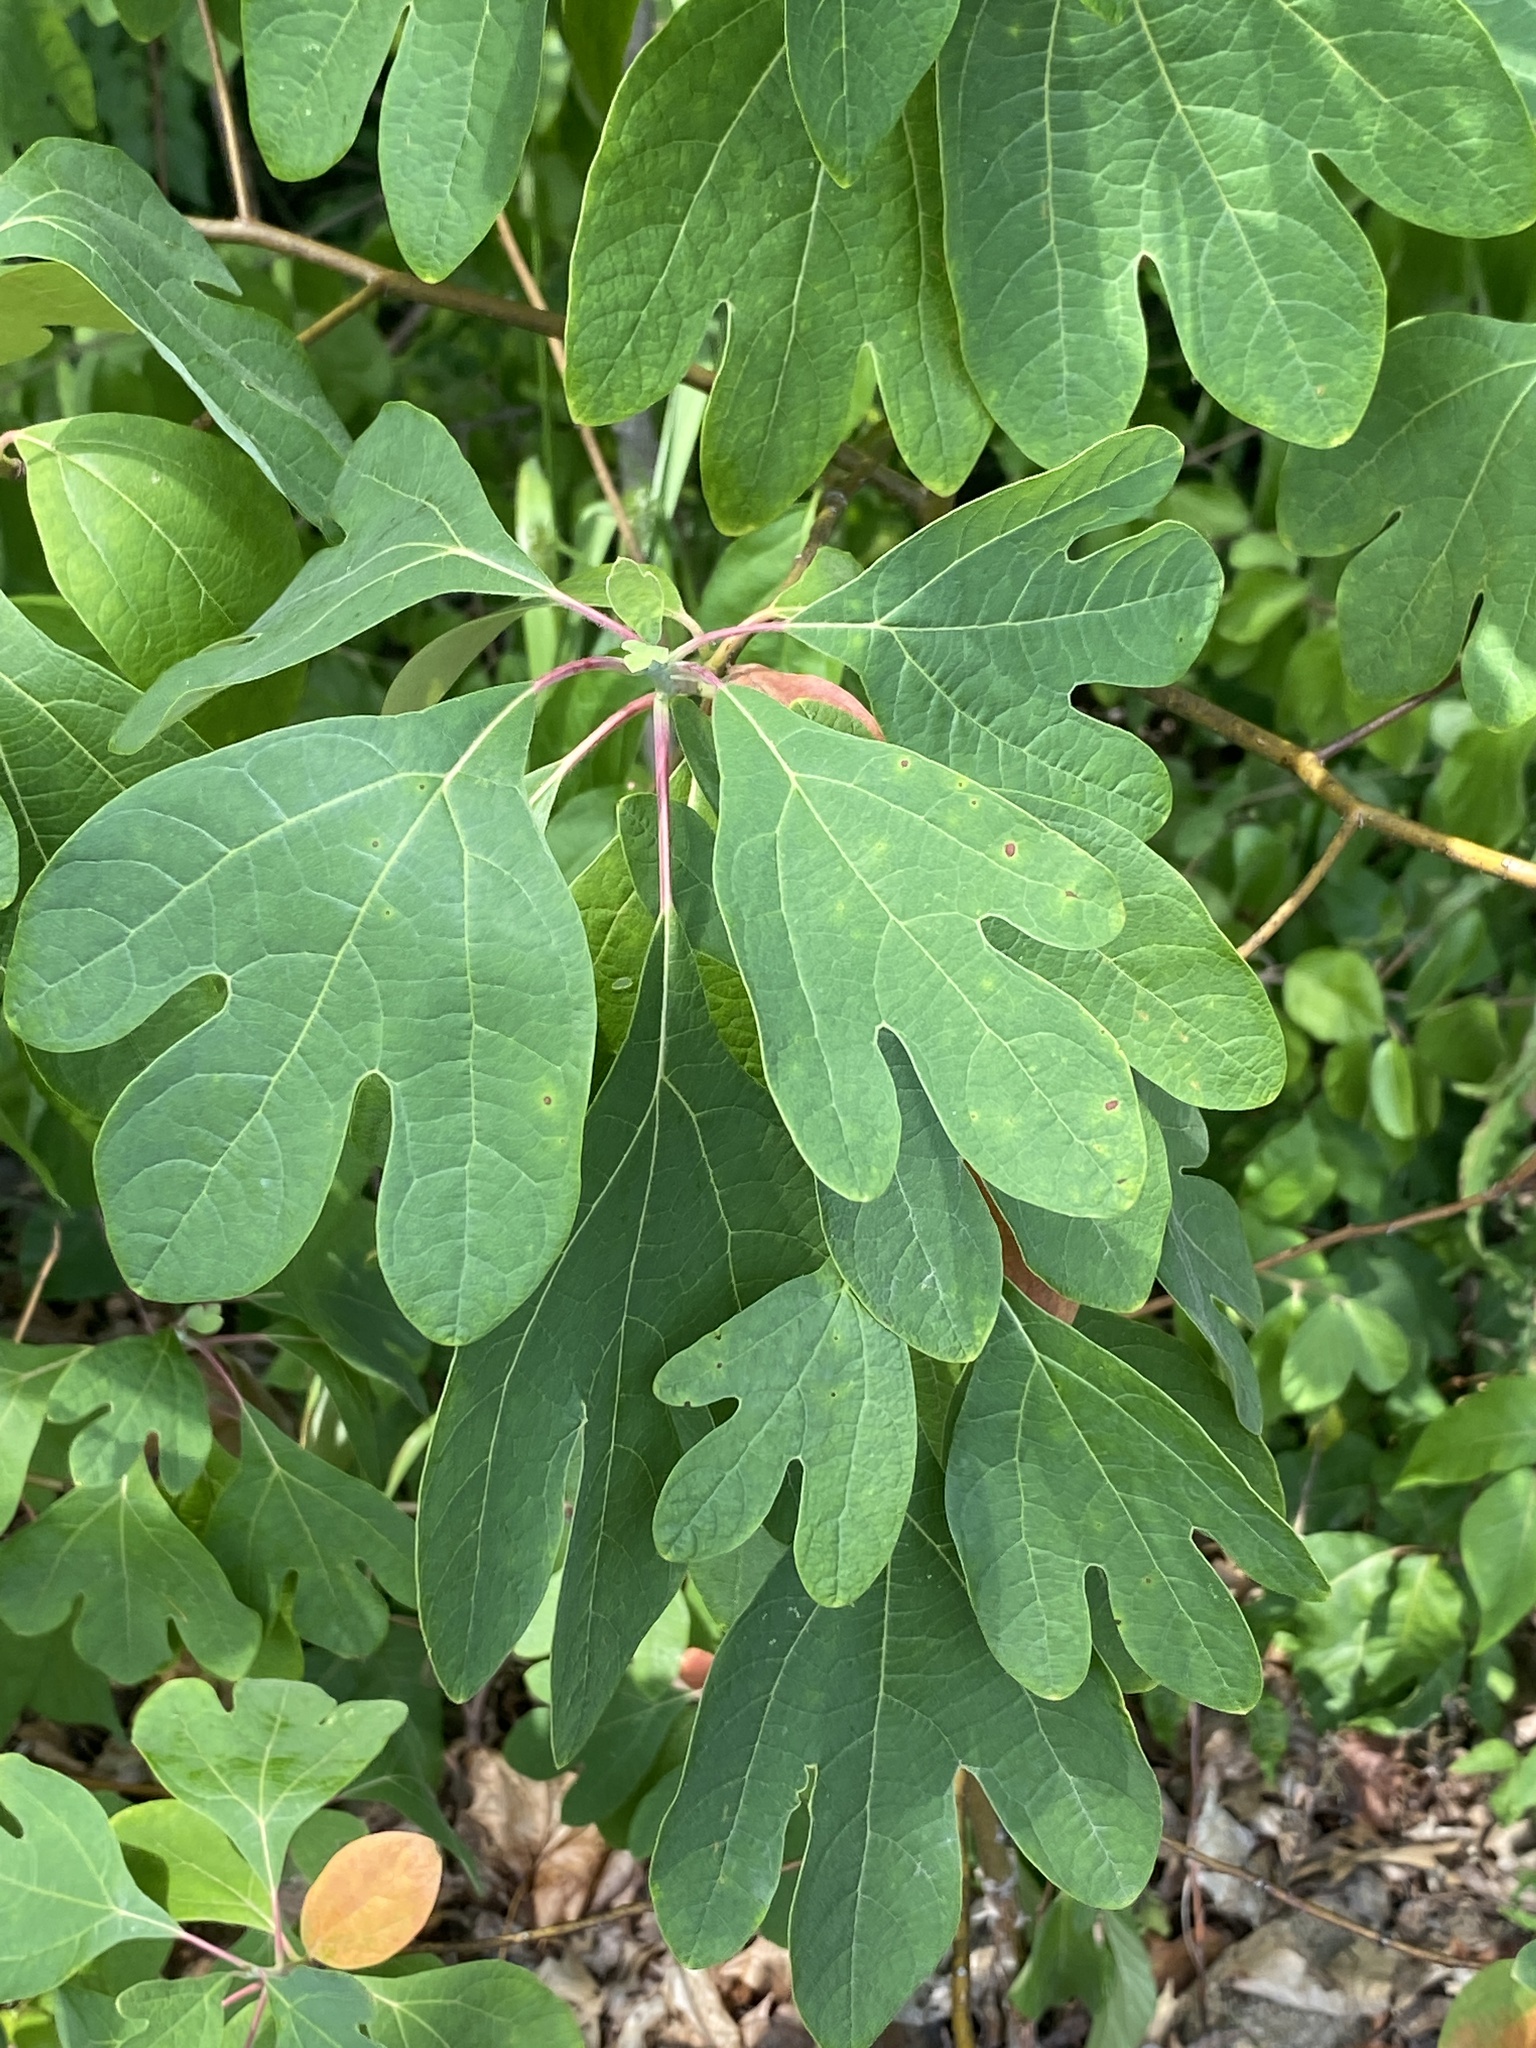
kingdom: Plantae
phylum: Tracheophyta
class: Magnoliopsida
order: Laurales
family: Lauraceae
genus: Sassafras
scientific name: Sassafras albidum
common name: Sassafras
